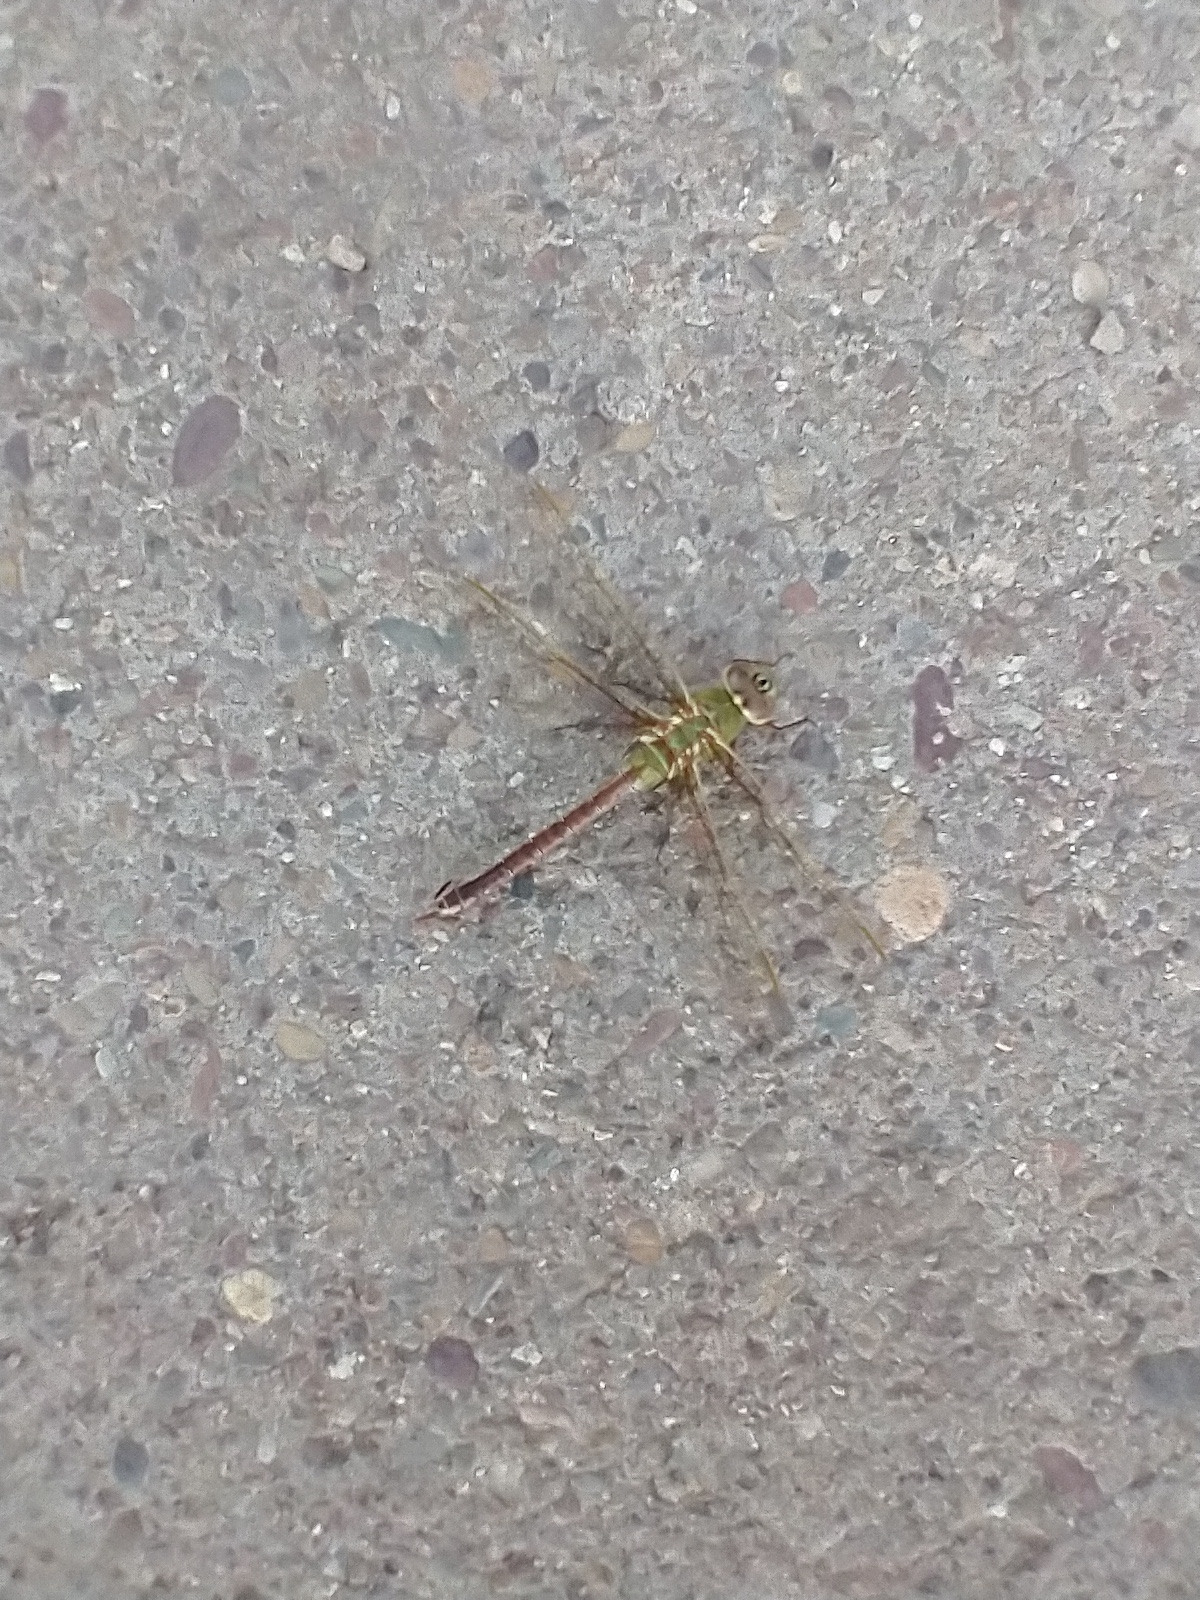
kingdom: Animalia
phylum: Arthropoda
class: Insecta
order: Odonata
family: Aeshnidae
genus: Anax
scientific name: Anax junius
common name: Common green darner
